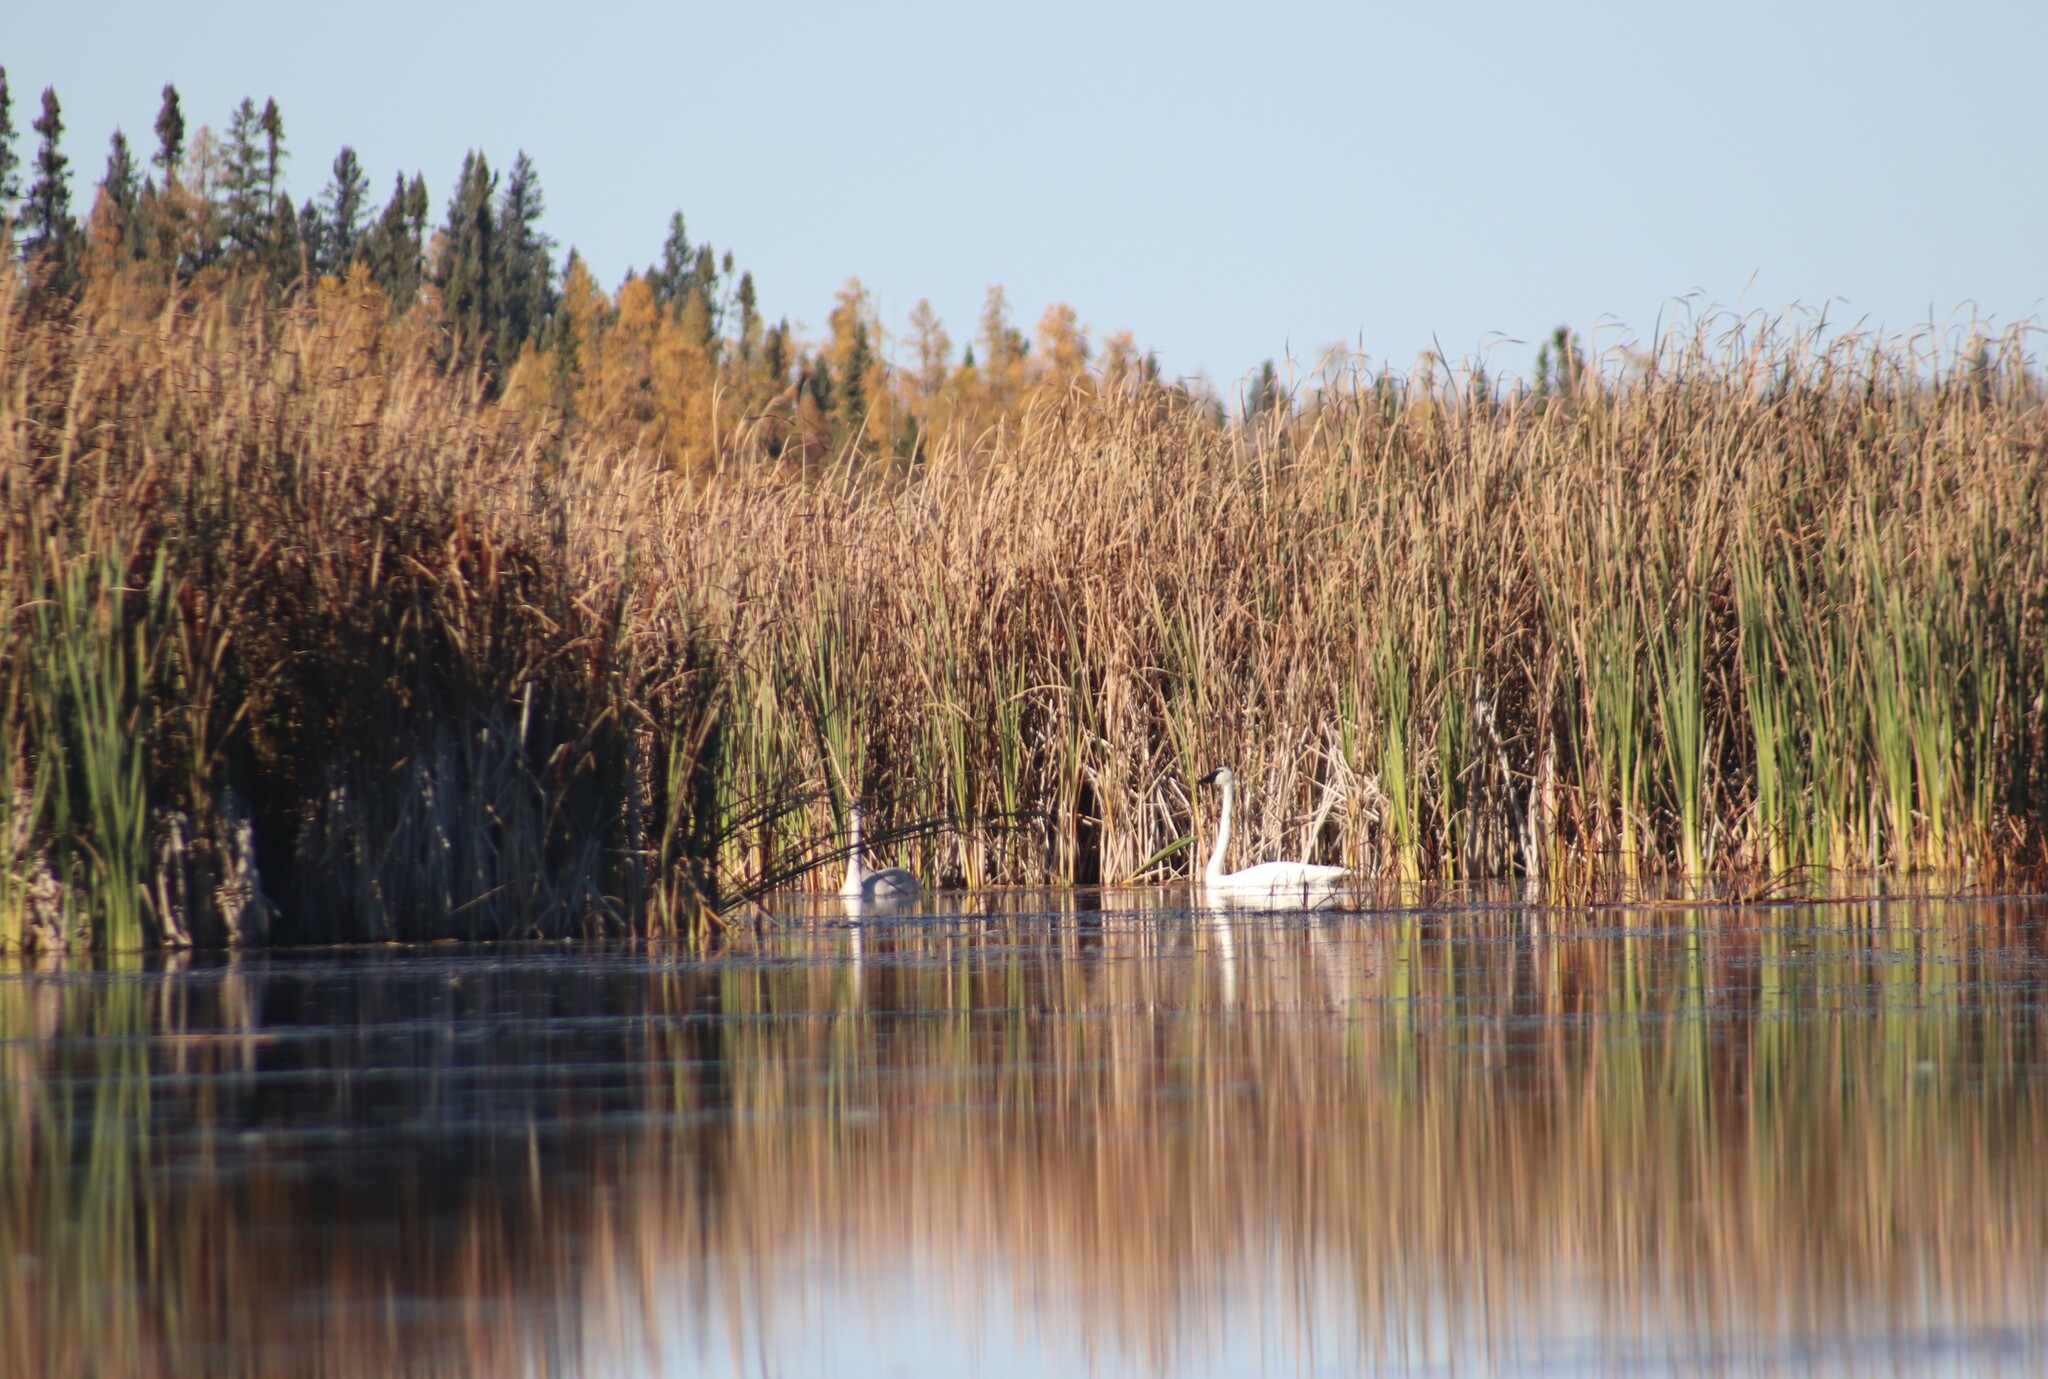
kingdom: Animalia
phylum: Chordata
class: Aves
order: Anseriformes
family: Anatidae
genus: Cygnus
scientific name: Cygnus buccinator
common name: Trumpeter swan
